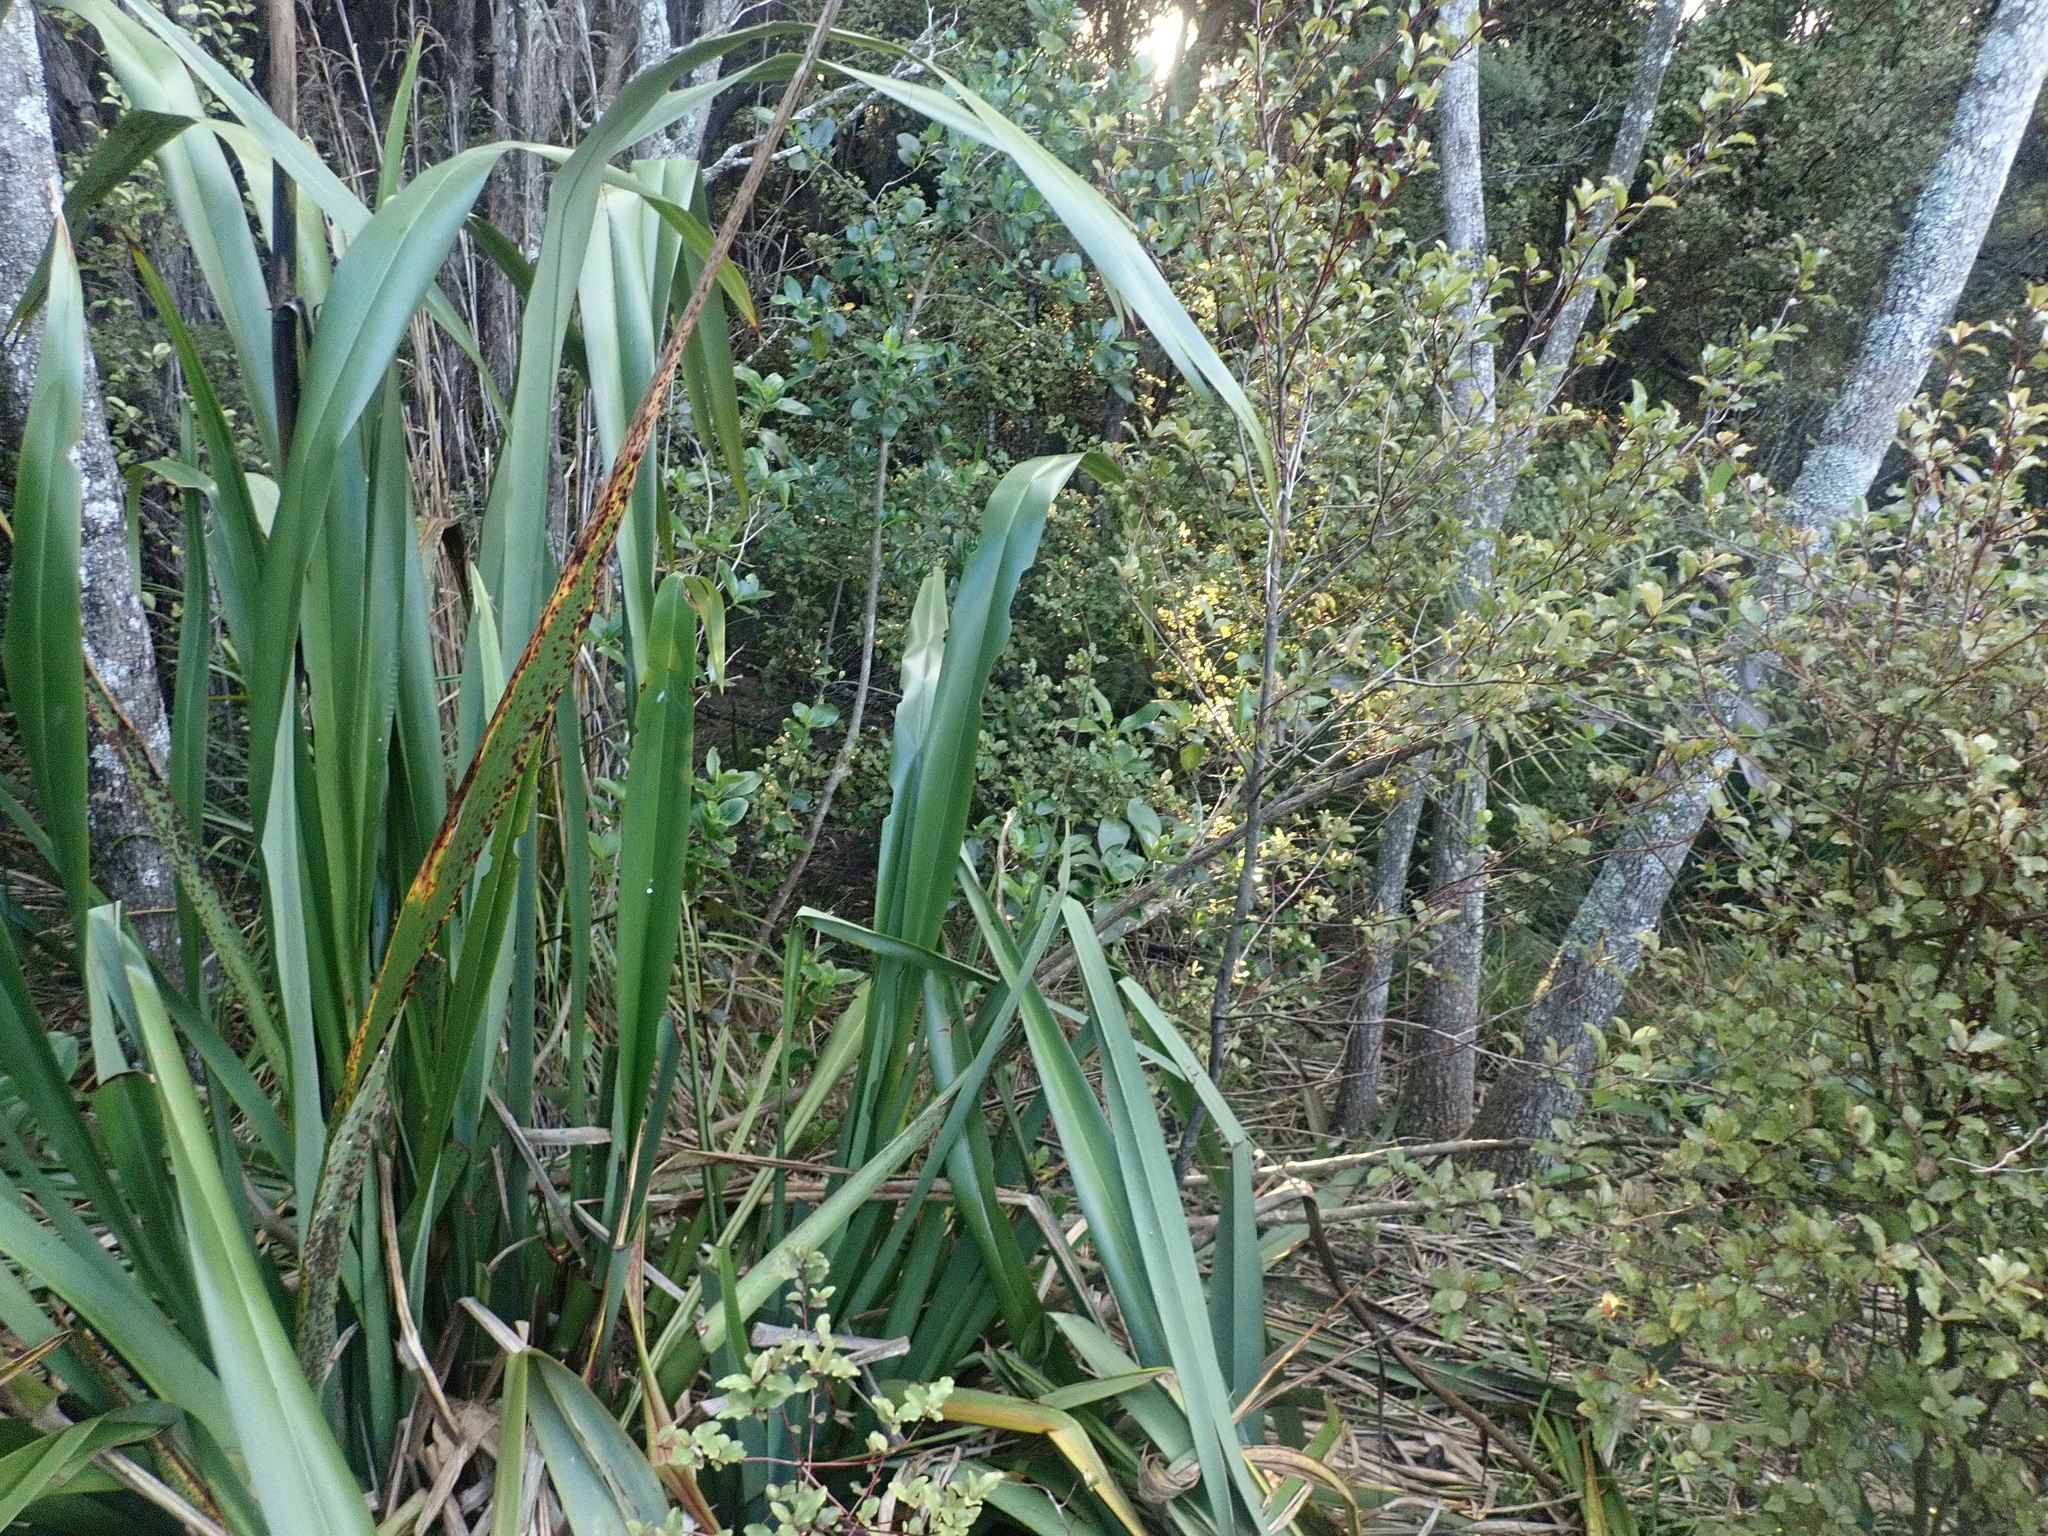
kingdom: Plantae
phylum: Tracheophyta
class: Magnoliopsida
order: Gentianales
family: Rubiaceae
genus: Coprosma
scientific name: Coprosma robusta
